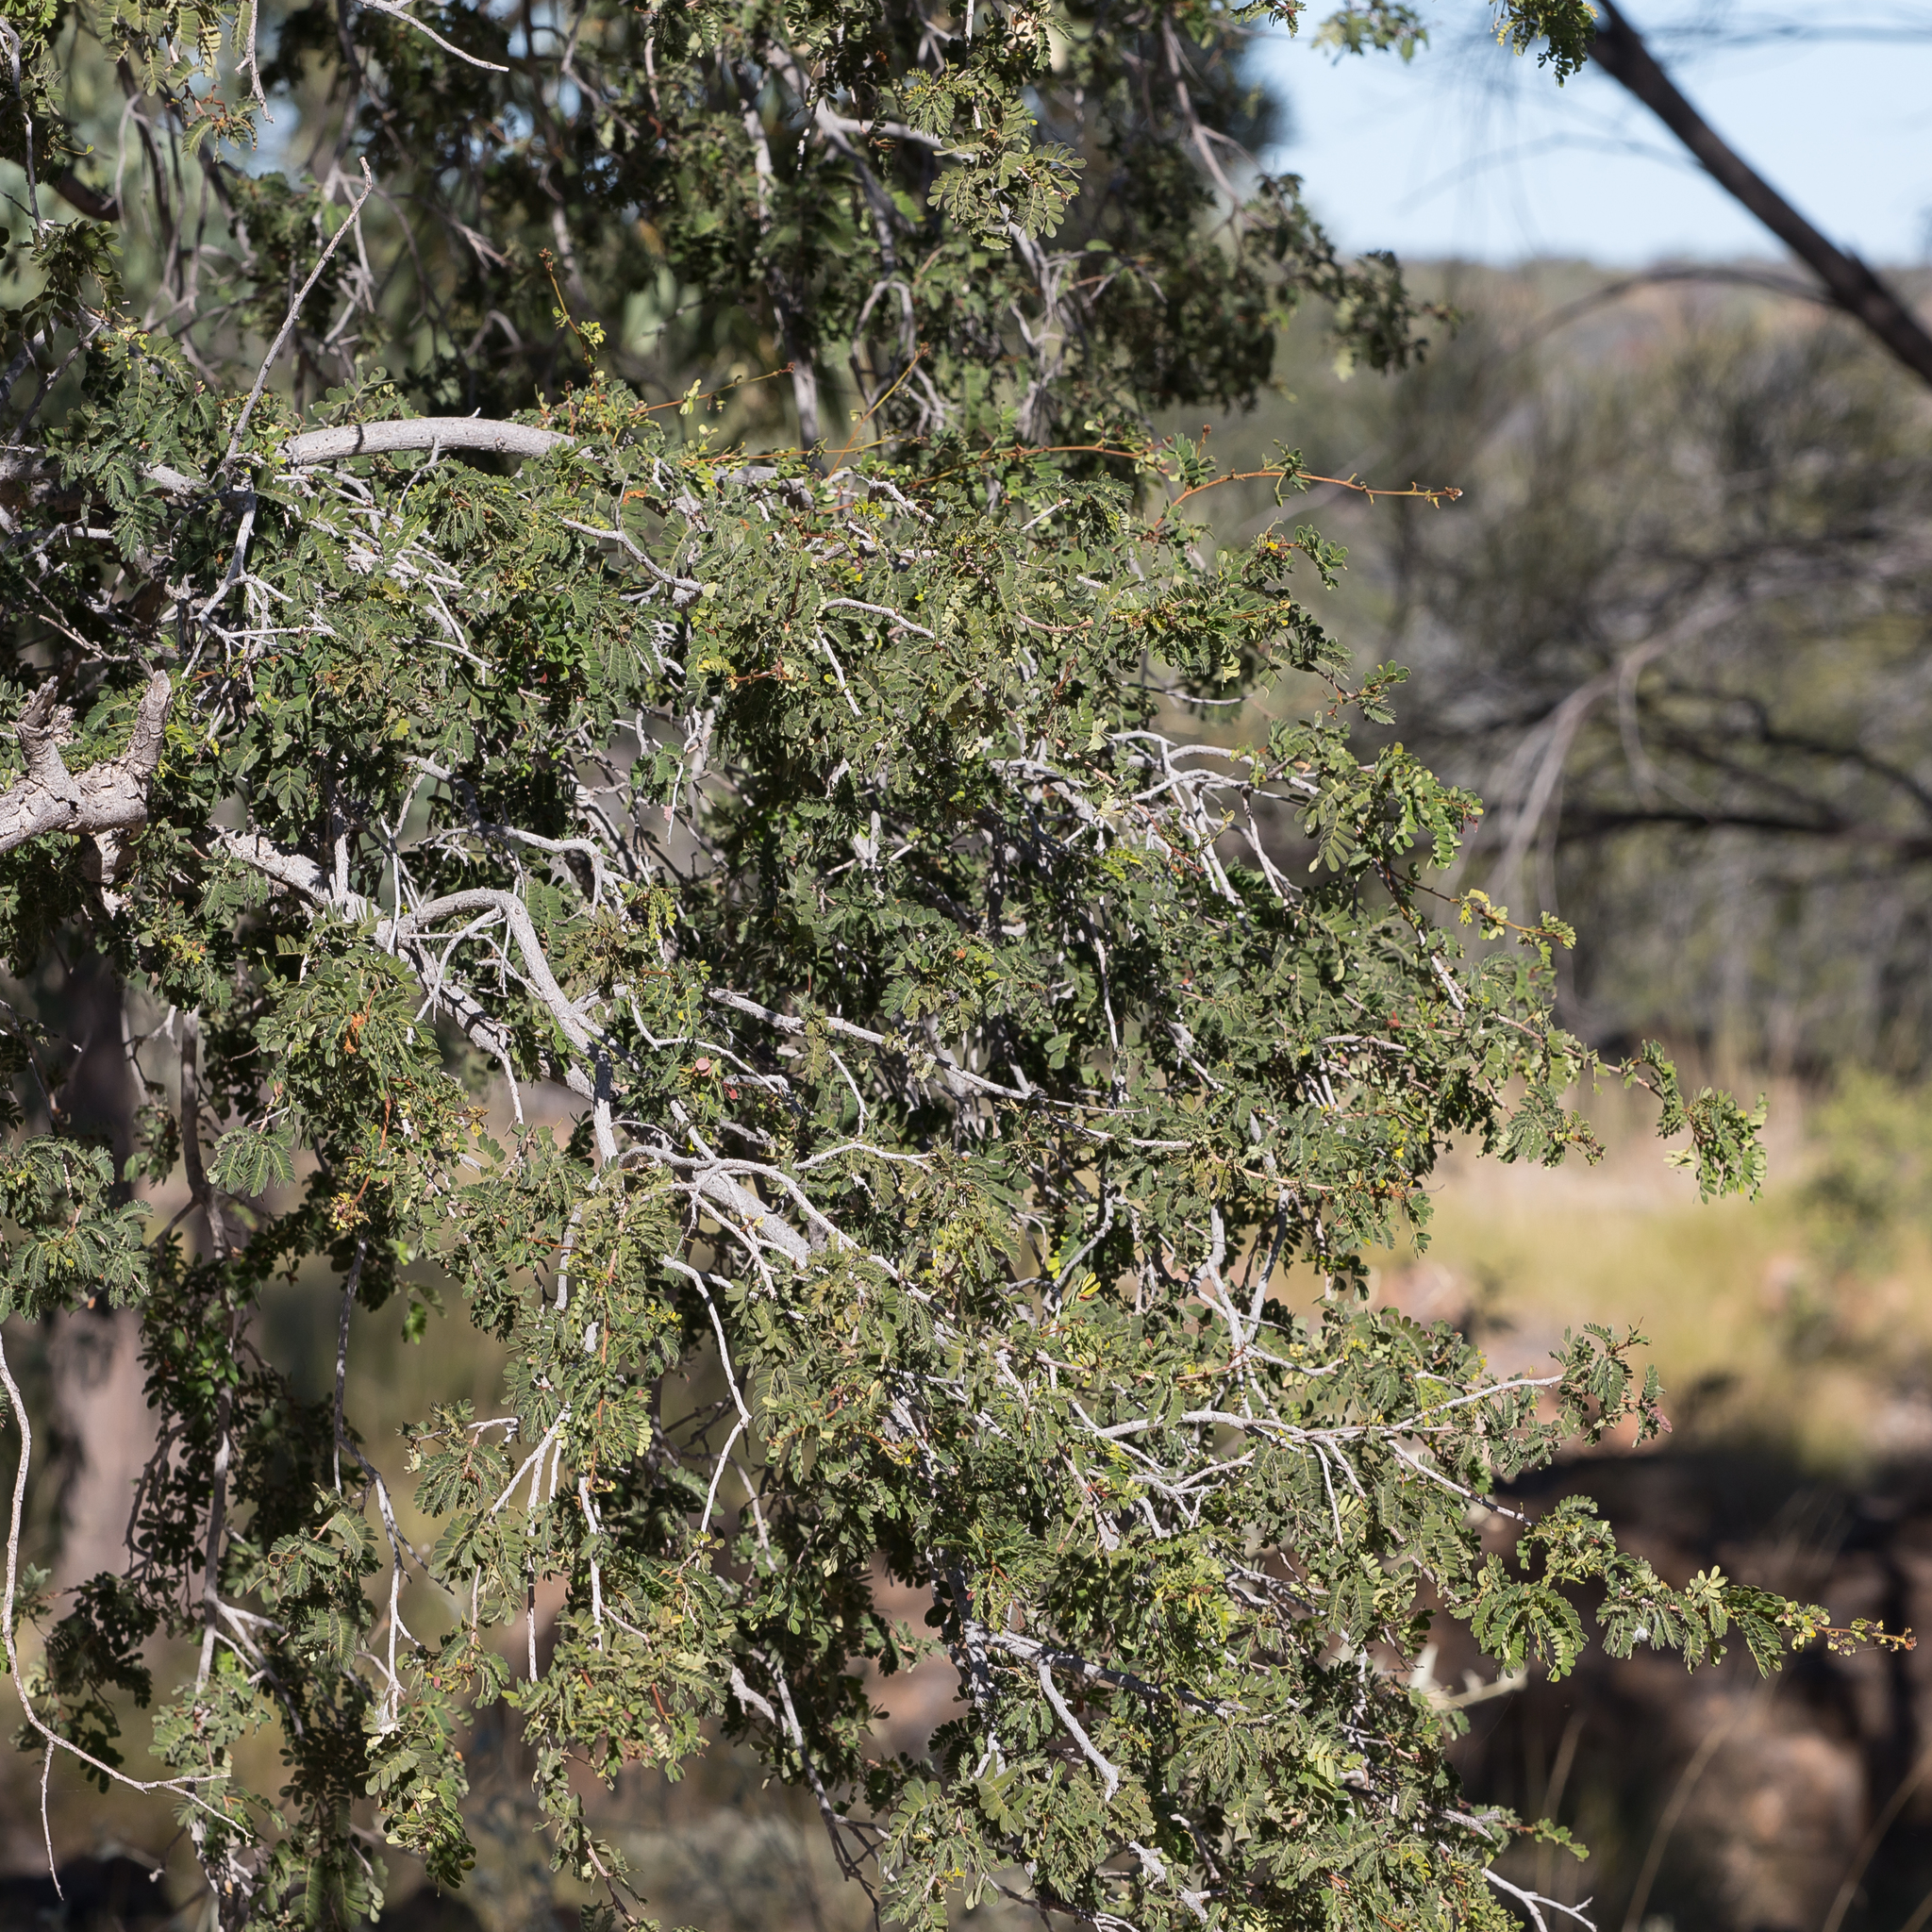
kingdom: Plantae
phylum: Tracheophyta
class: Magnoliopsida
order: Fabales
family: Fabaceae
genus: Archidendropsis
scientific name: Archidendropsis basaltica
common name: Red lancewood
